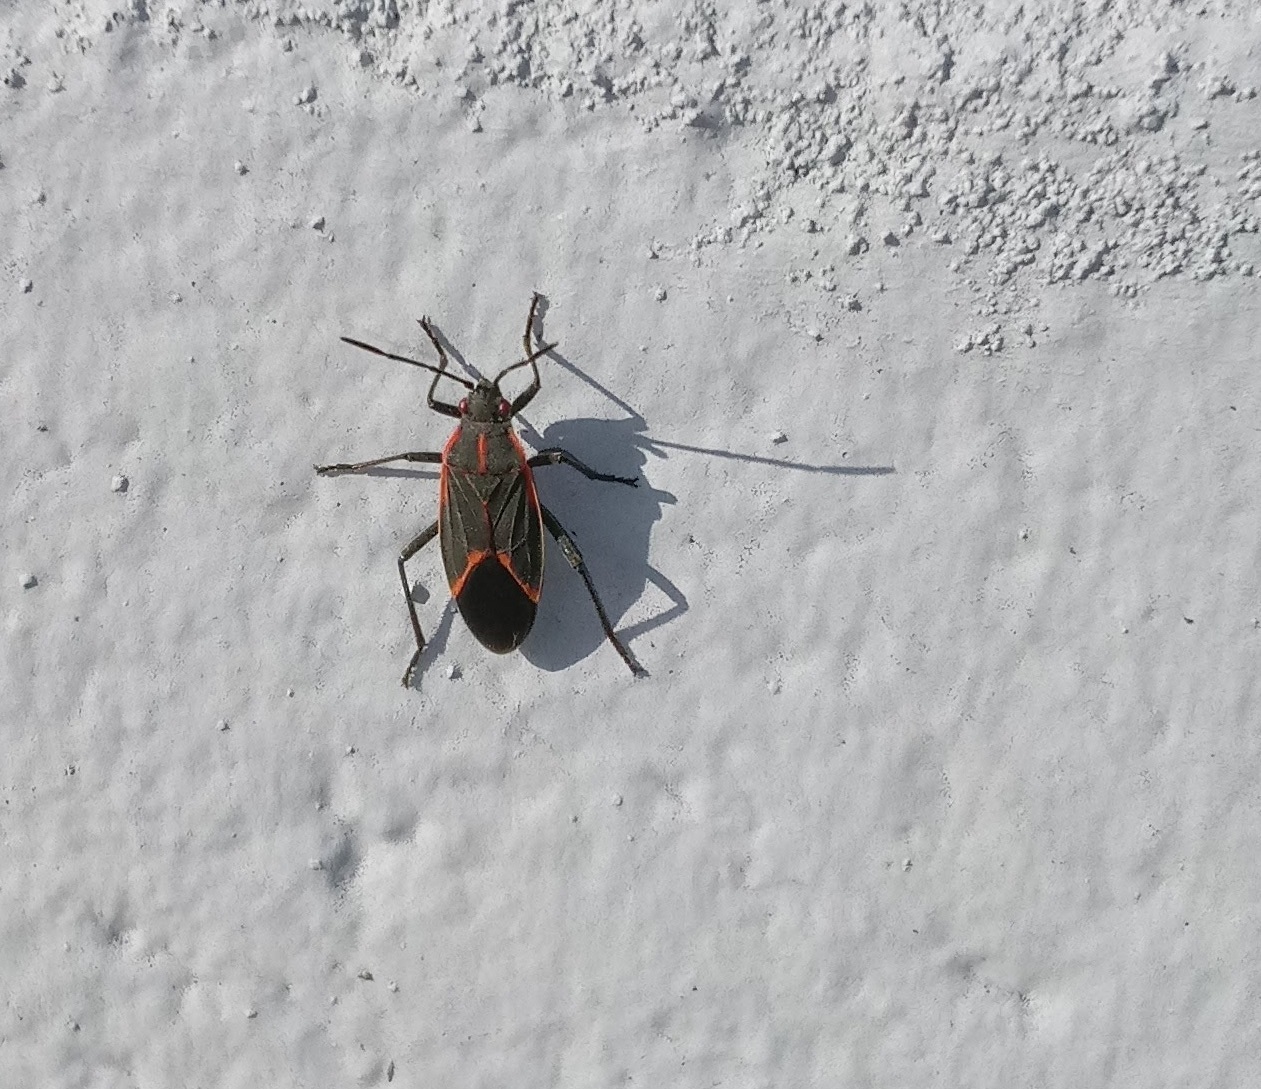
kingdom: Animalia
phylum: Arthropoda
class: Insecta
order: Hemiptera
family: Rhopalidae
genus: Boisea
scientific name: Boisea trivittata
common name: Boxelder bug
